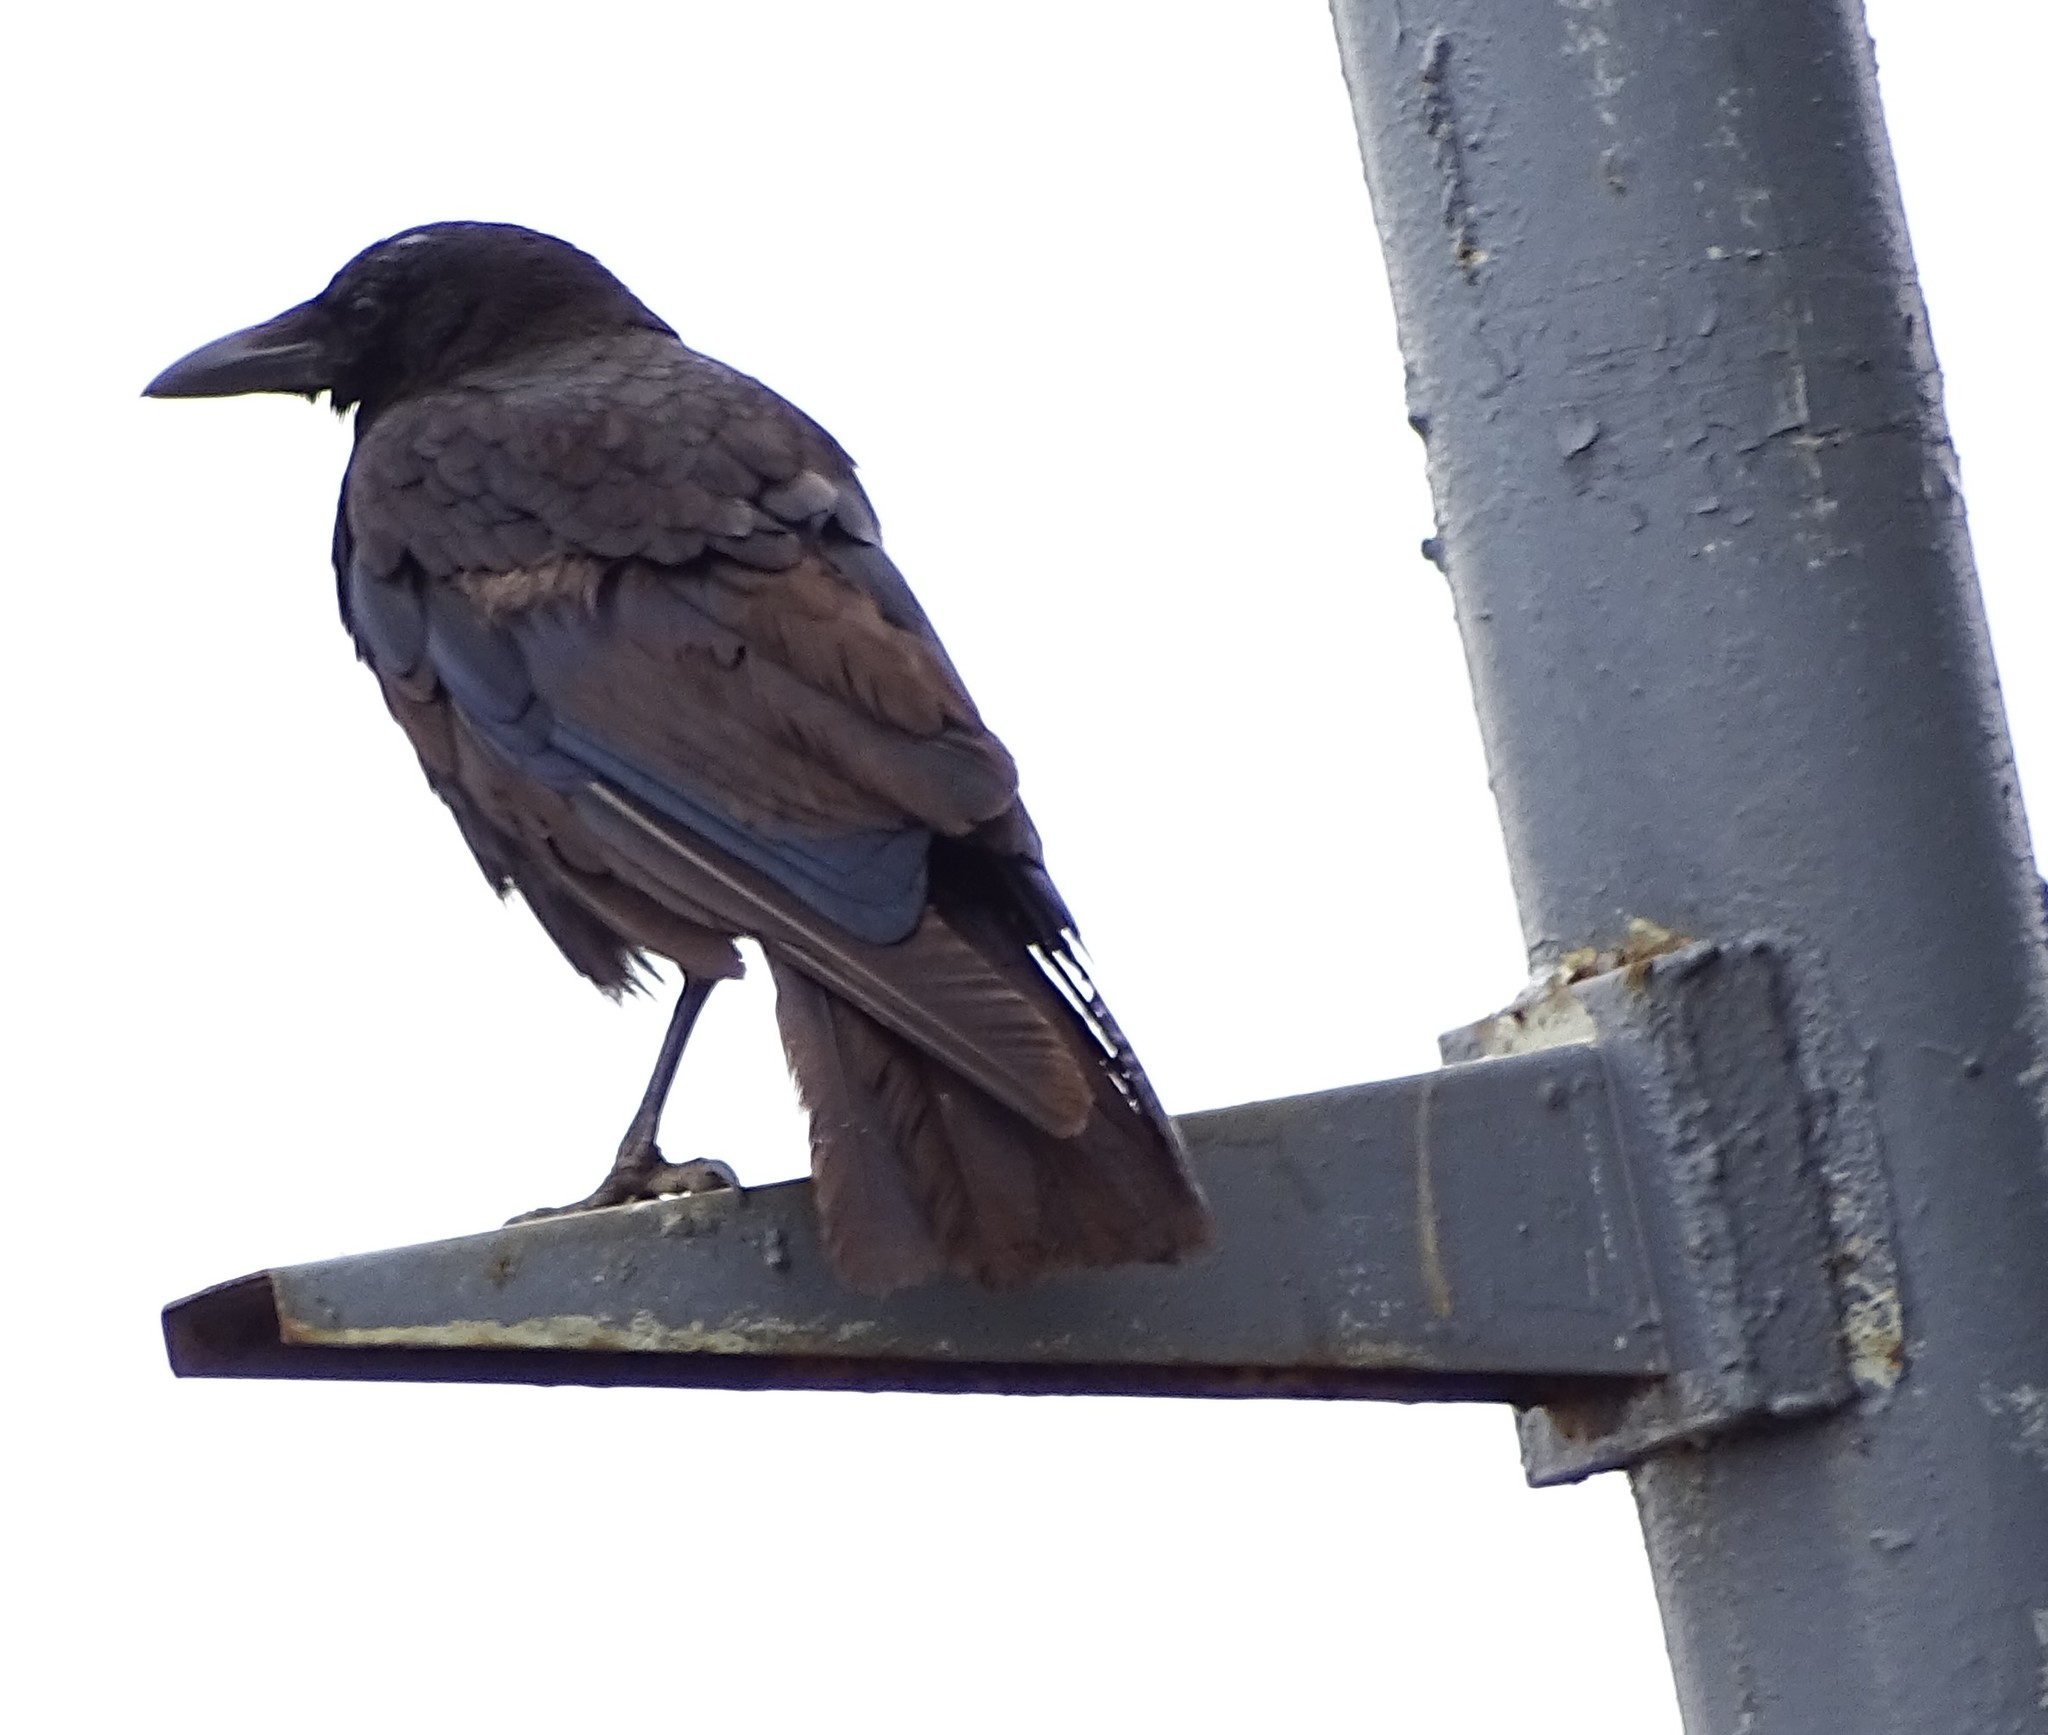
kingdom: Animalia
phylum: Chordata
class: Aves
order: Passeriformes
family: Corvidae
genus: Corvus
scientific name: Corvus brachyrhynchos
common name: American crow
